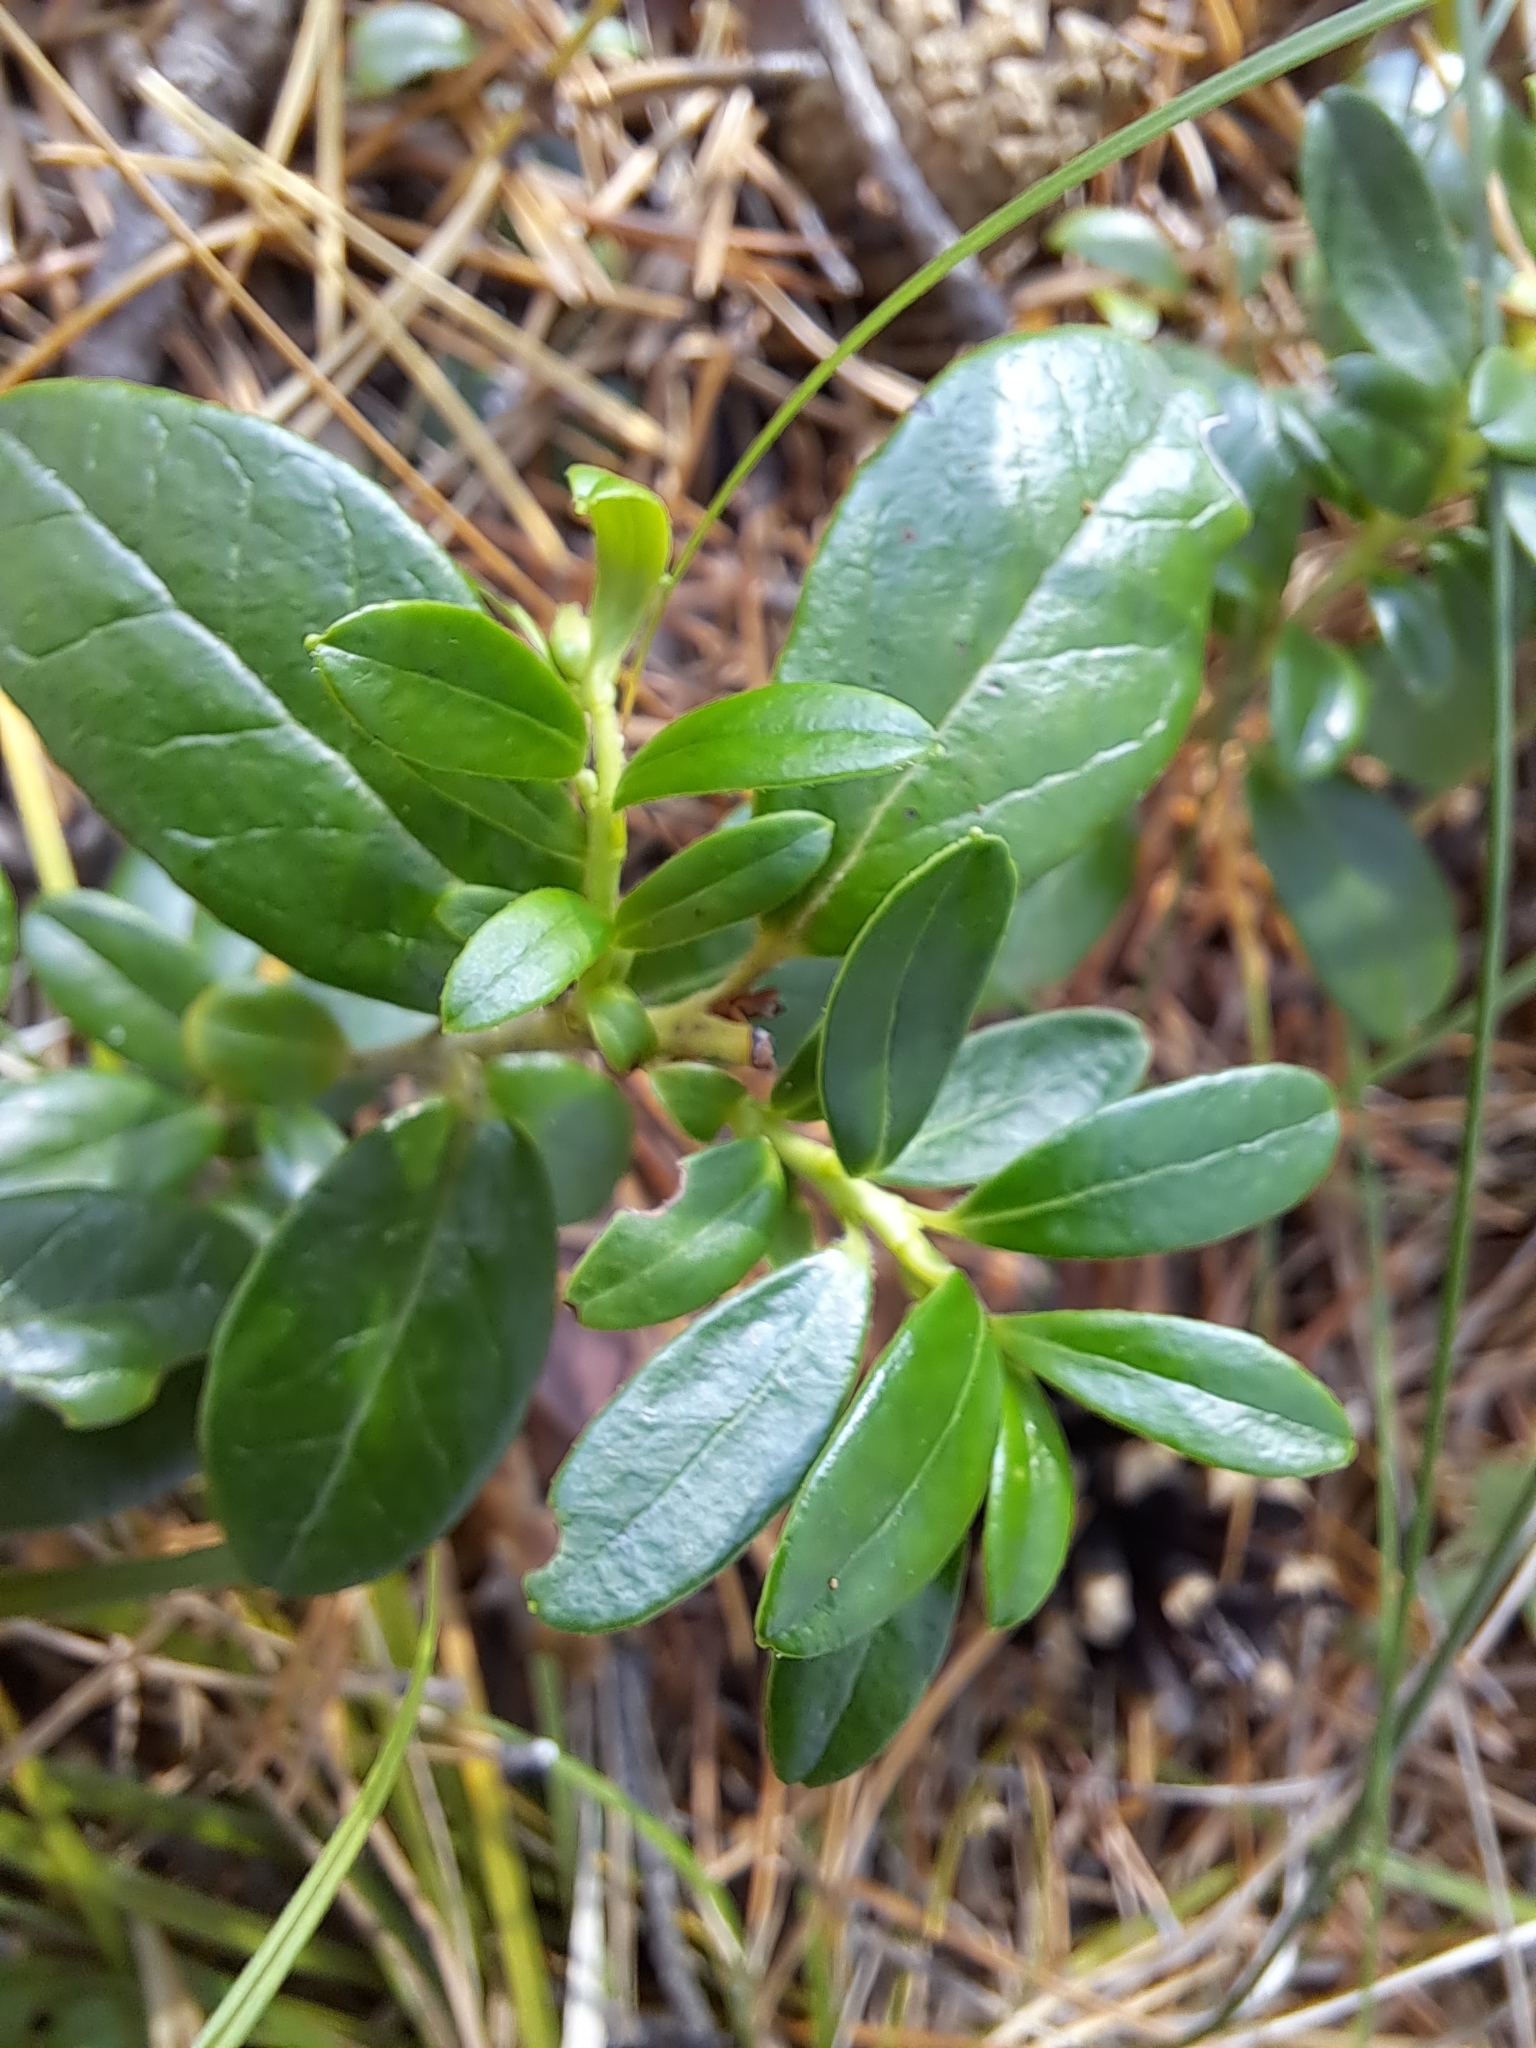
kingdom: Plantae
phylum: Tracheophyta
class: Magnoliopsida
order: Ericales
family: Ericaceae
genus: Vaccinium
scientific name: Vaccinium vitis-idaea
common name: Cowberry
